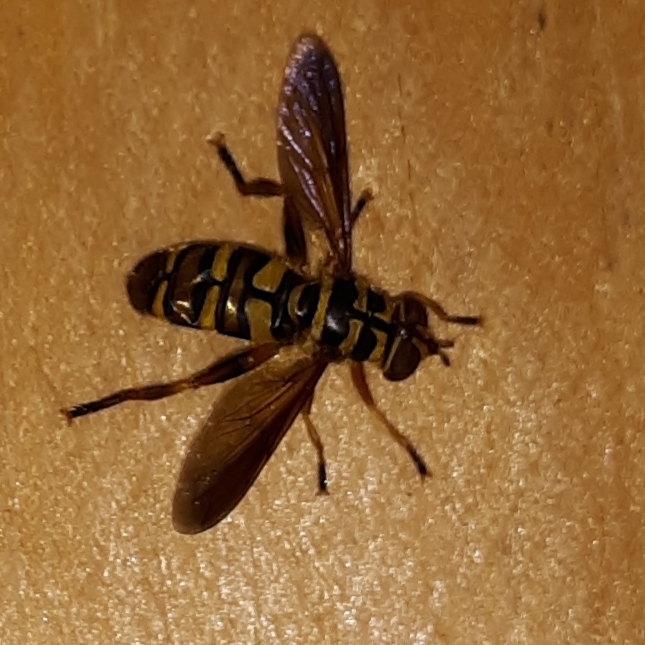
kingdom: Animalia
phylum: Arthropoda
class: Insecta
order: Diptera
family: Syrphidae
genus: Milesia
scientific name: Milesia virginiensis
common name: Virginia giant
